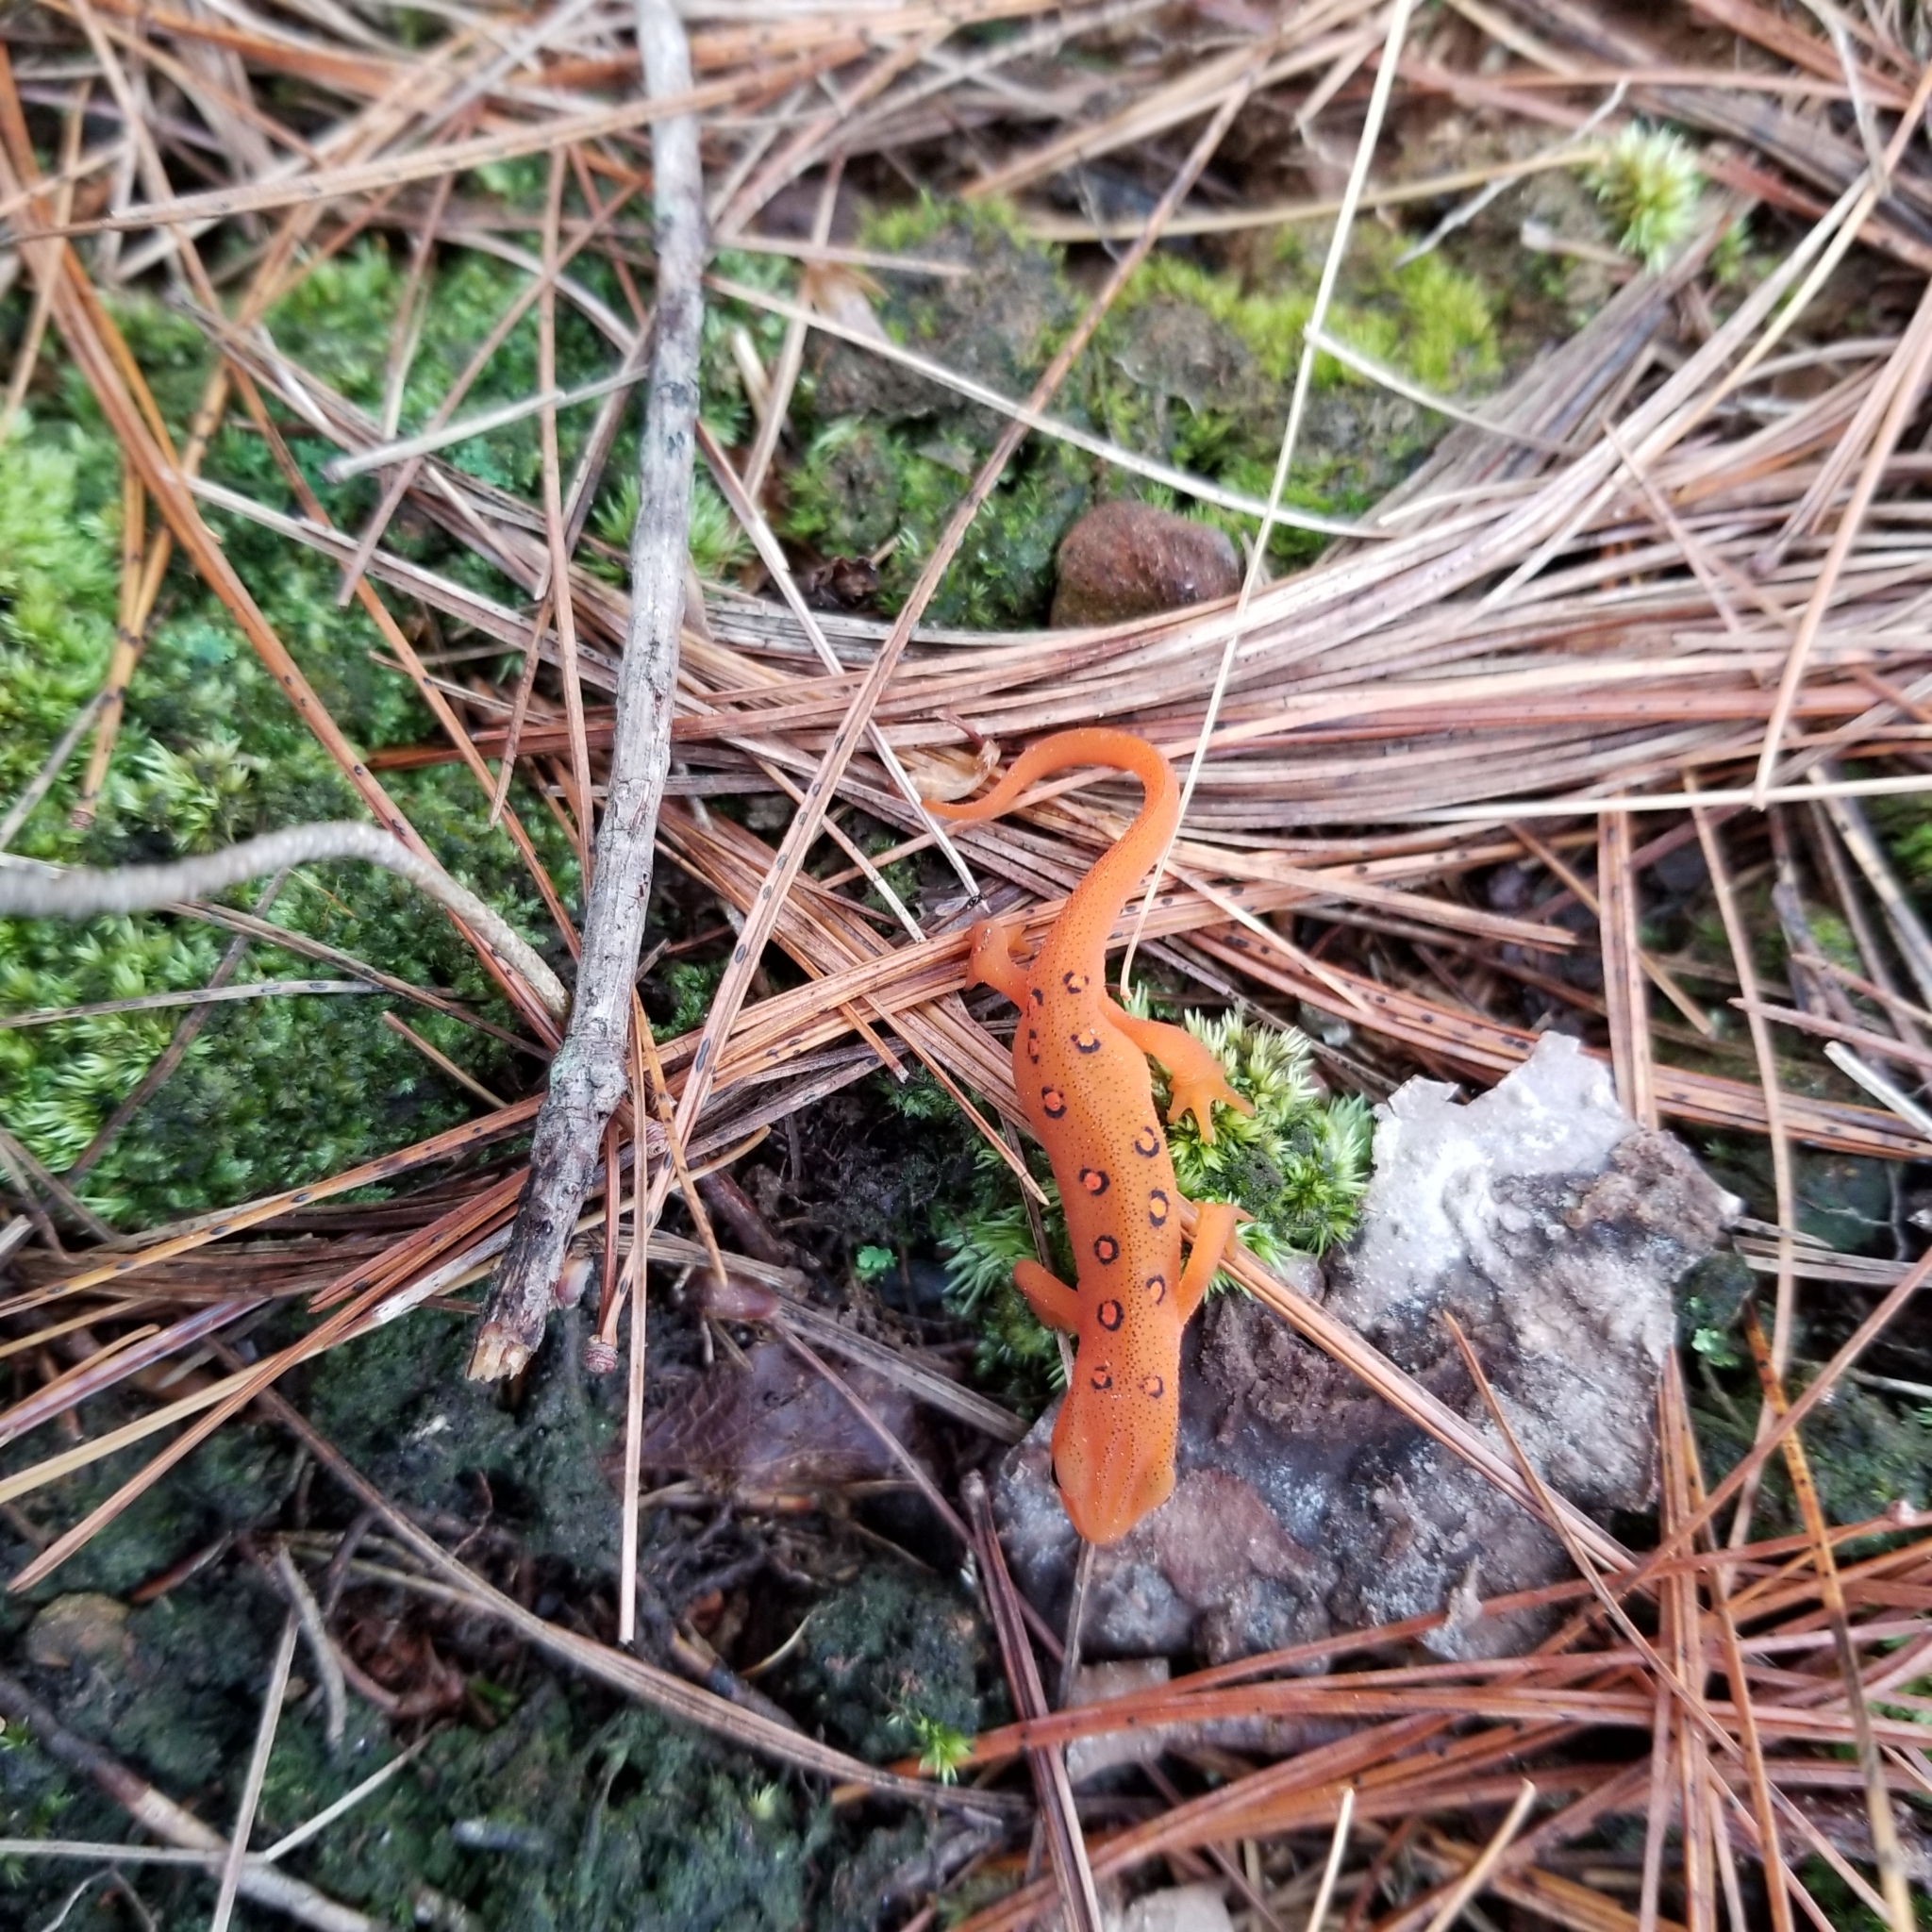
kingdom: Animalia
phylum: Chordata
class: Amphibia
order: Caudata
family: Salamandridae
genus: Notophthalmus
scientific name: Notophthalmus viridescens
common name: Eastern newt
